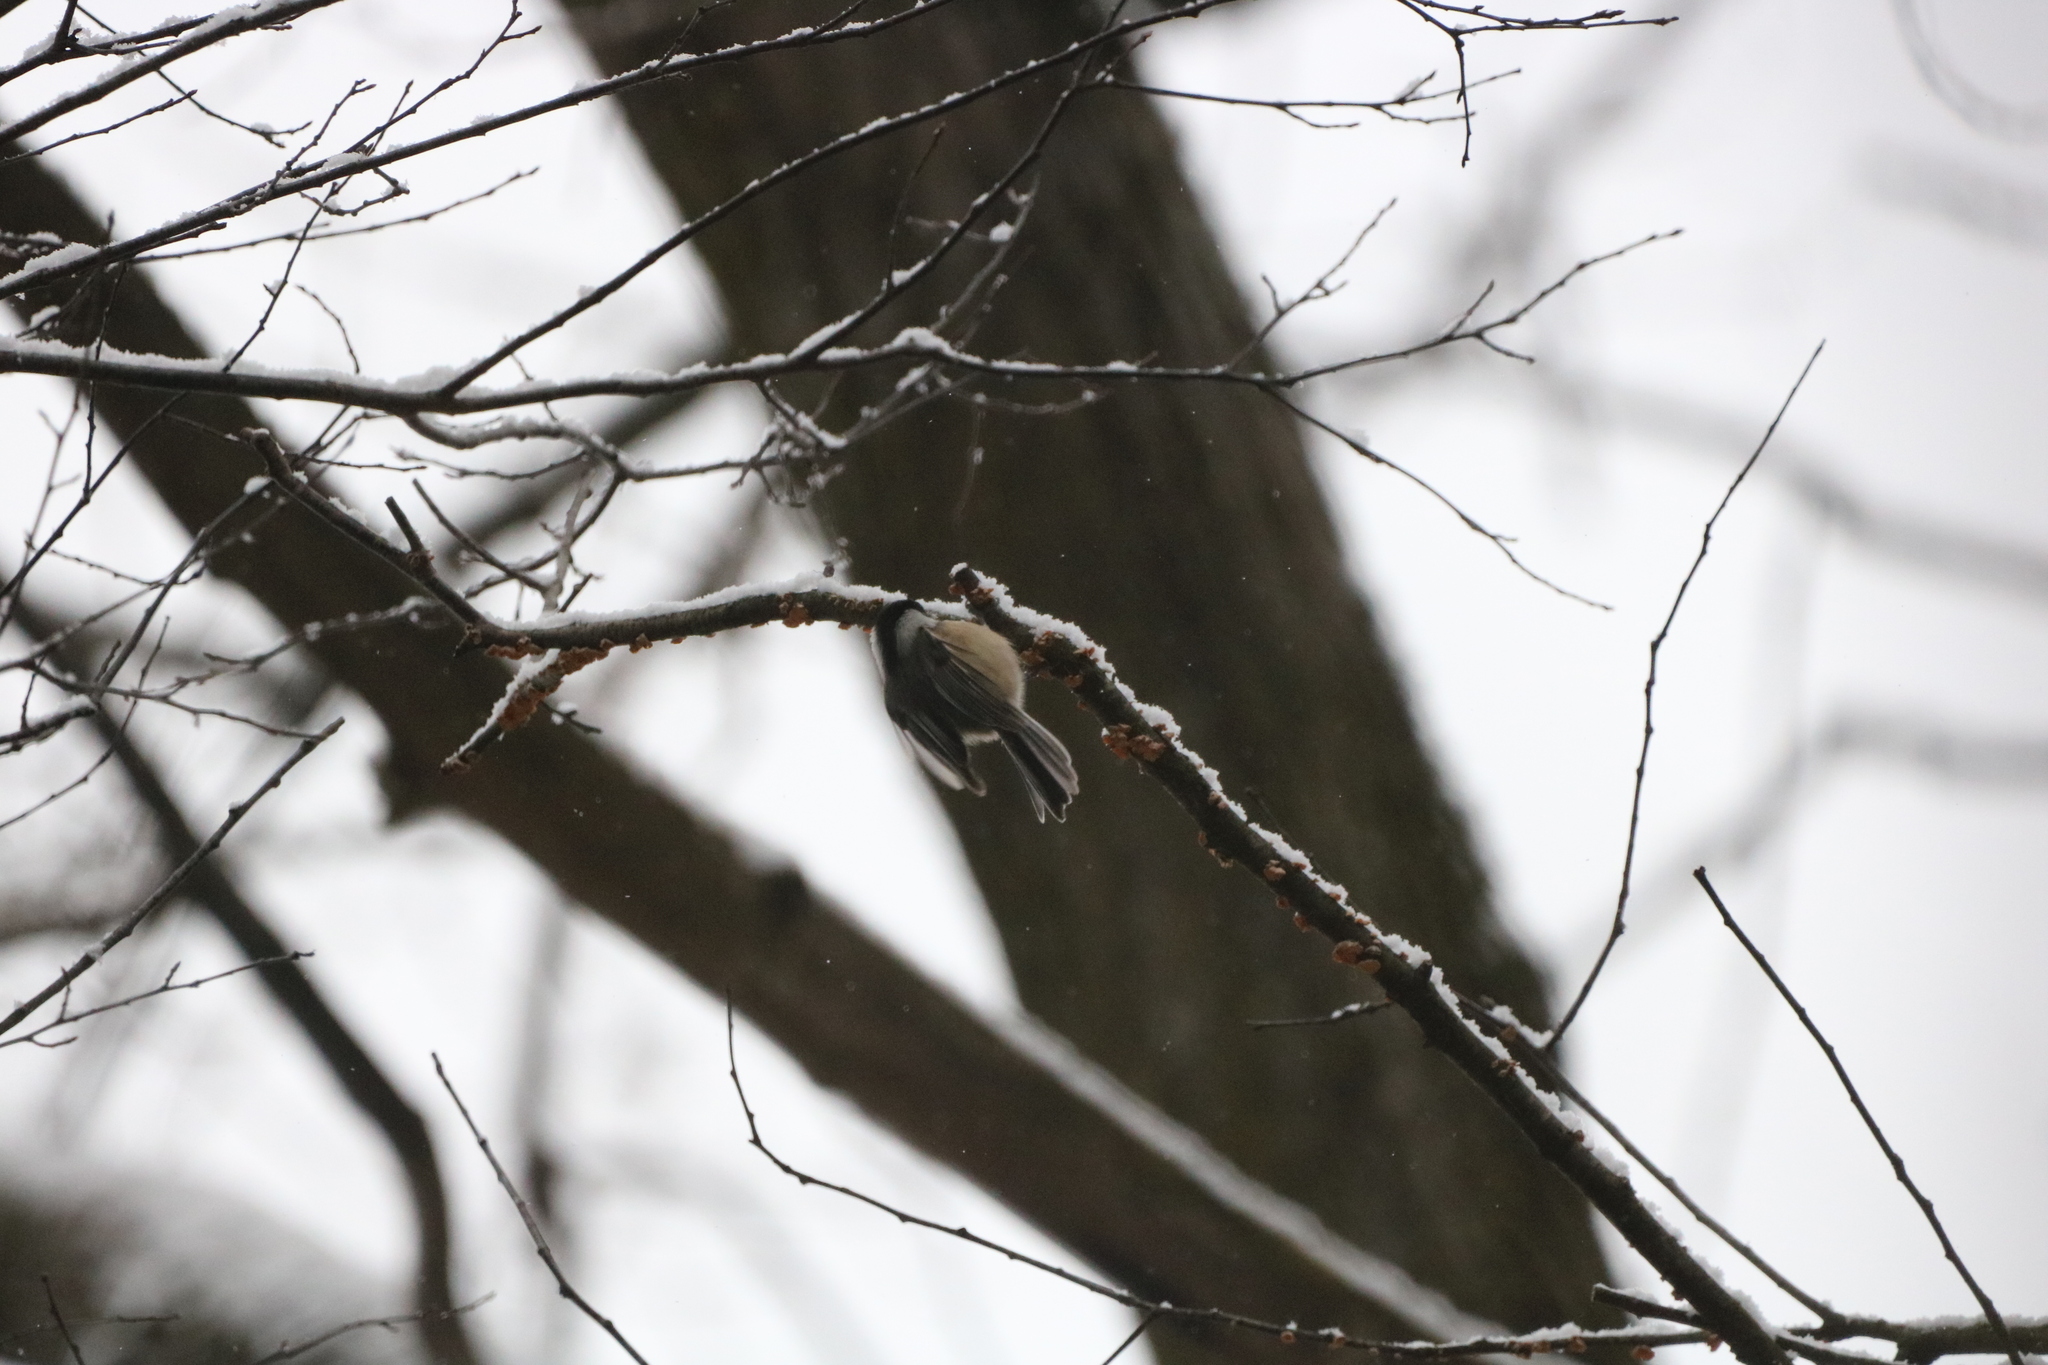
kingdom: Animalia
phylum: Chordata
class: Aves
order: Passeriformes
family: Paridae
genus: Poecile
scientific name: Poecile atricapillus
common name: Black-capped chickadee
